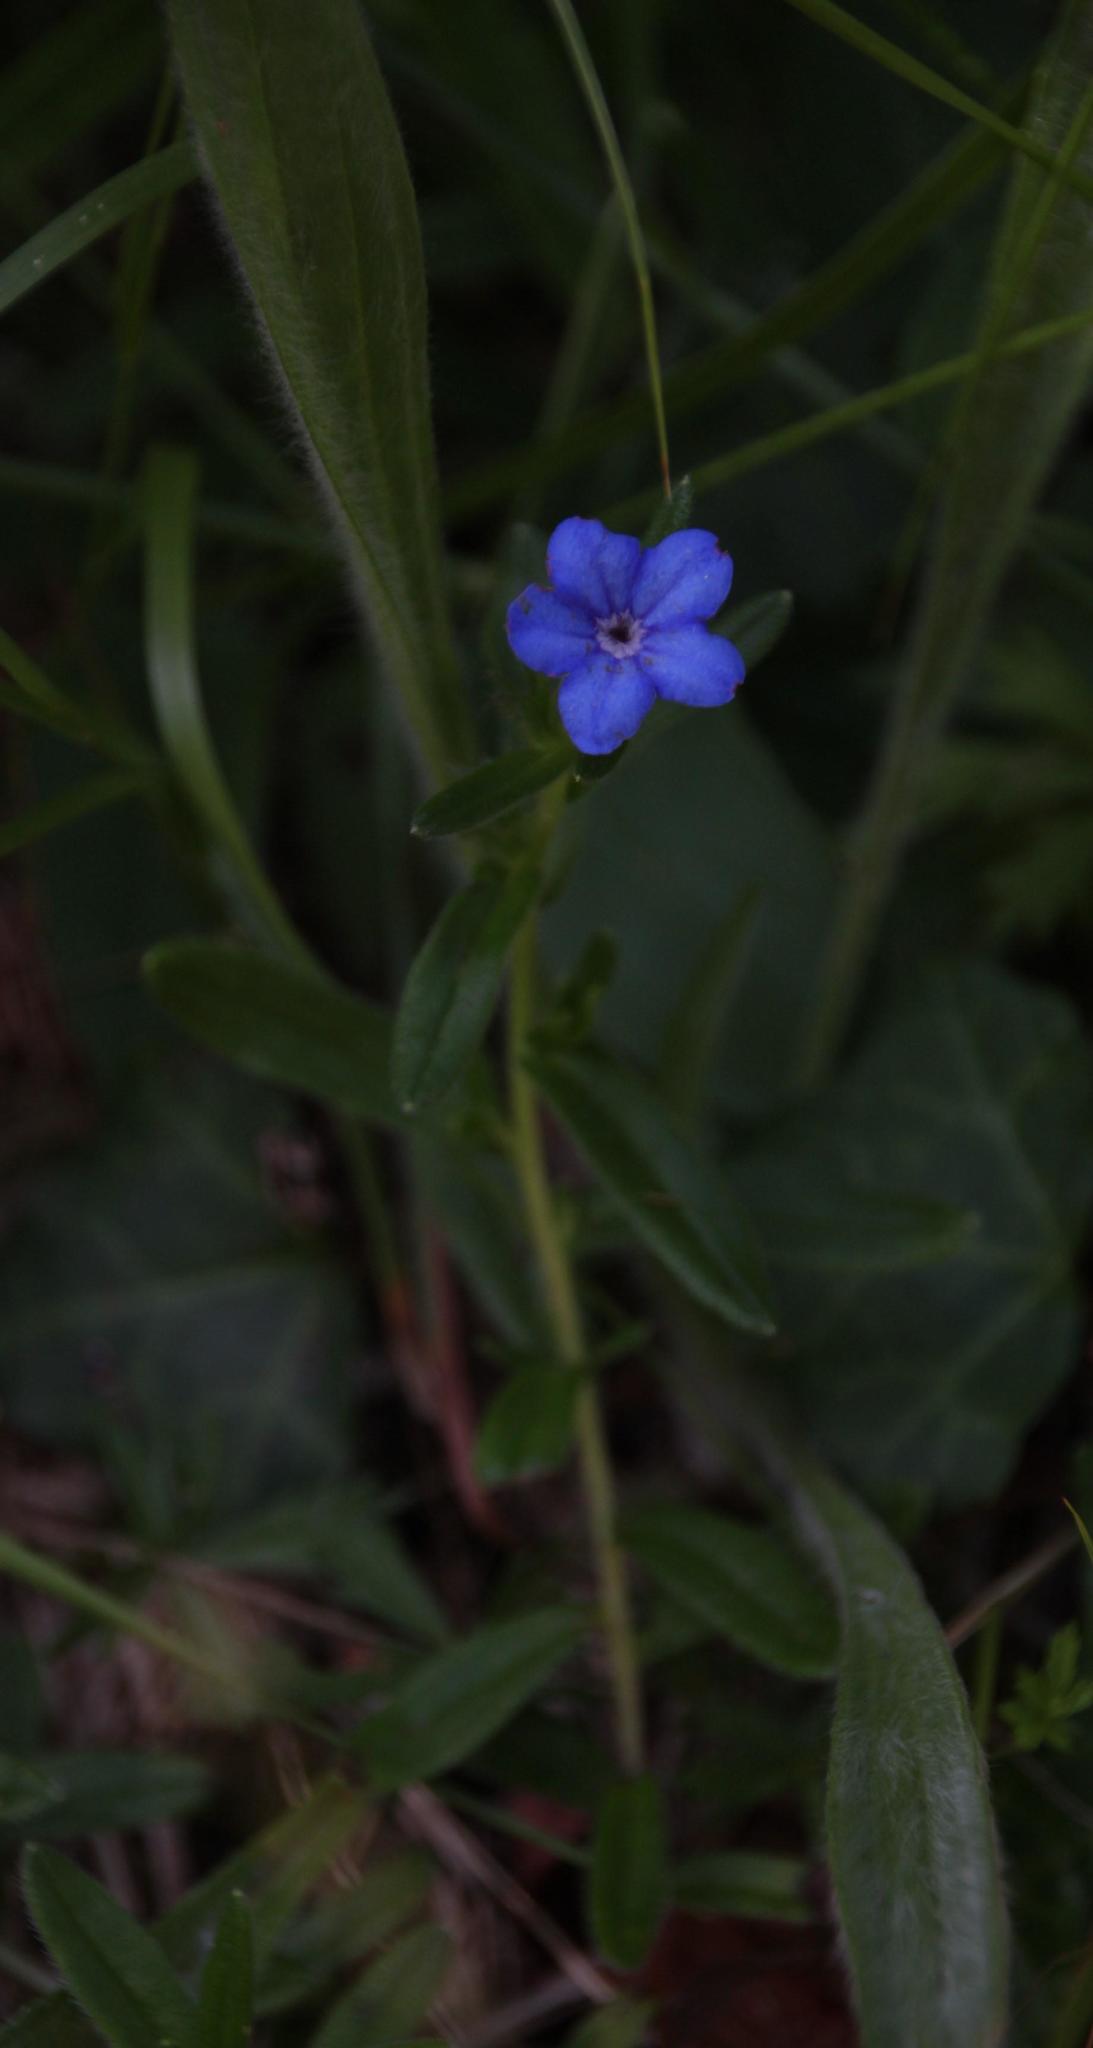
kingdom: Plantae
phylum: Tracheophyta
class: Magnoliopsida
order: Boraginales
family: Boraginaceae
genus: Glandora
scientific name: Glandora prostrata
